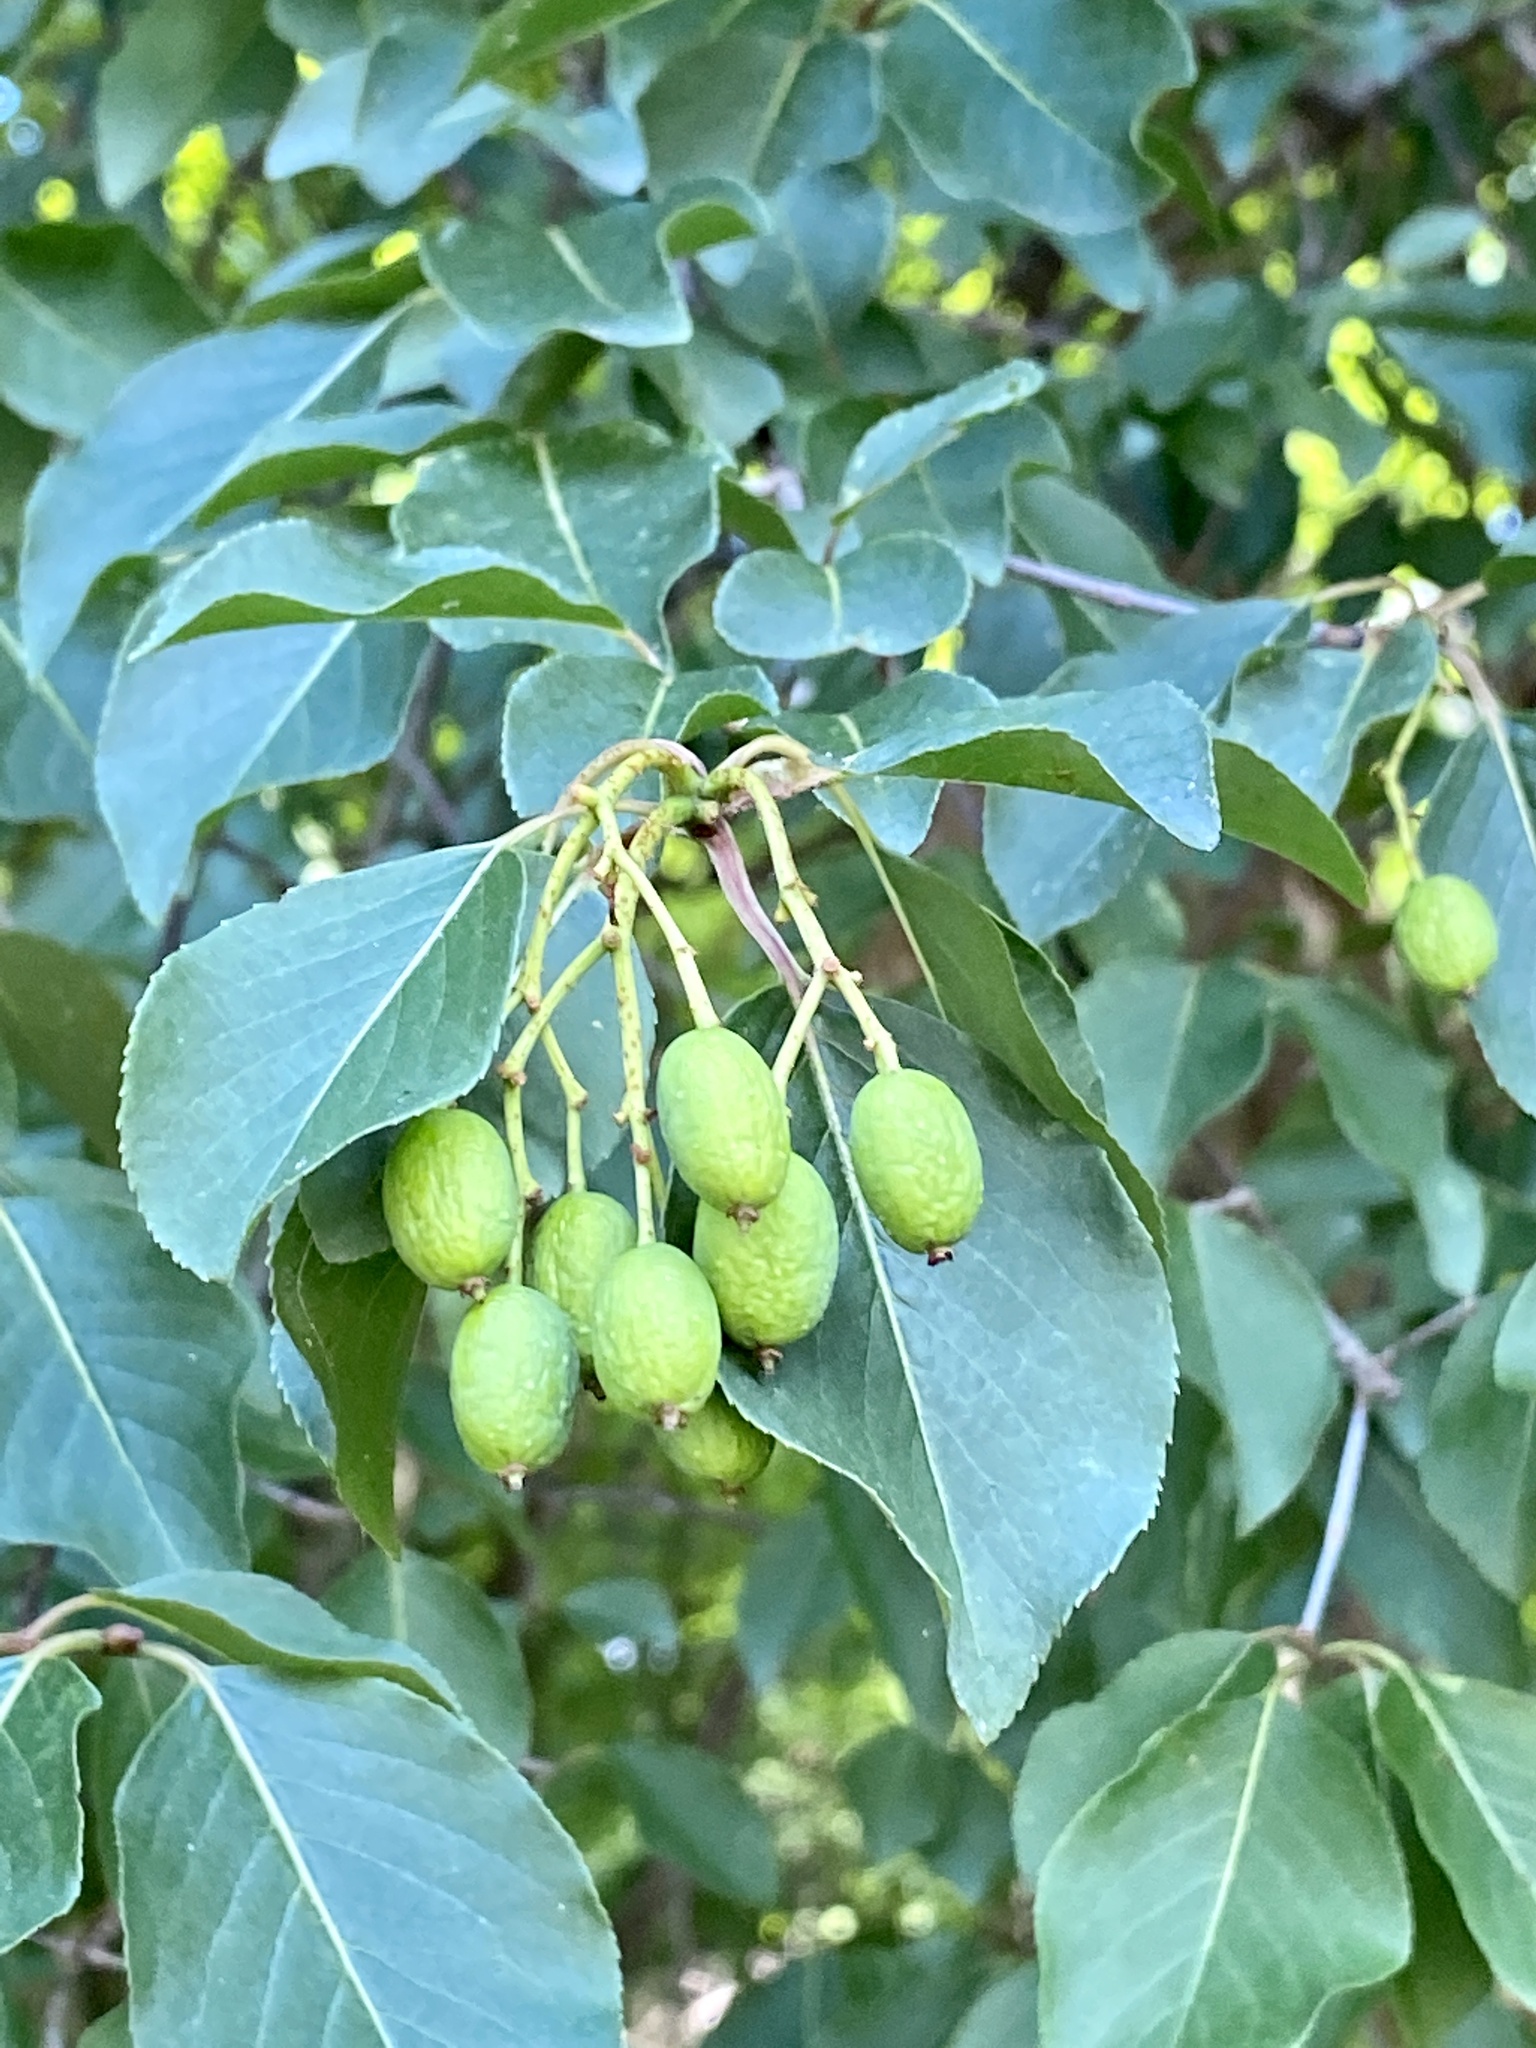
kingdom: Plantae
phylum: Tracheophyta
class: Magnoliopsida
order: Dipsacales
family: Viburnaceae
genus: Viburnum
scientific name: Viburnum prunifolium
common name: Black haw
